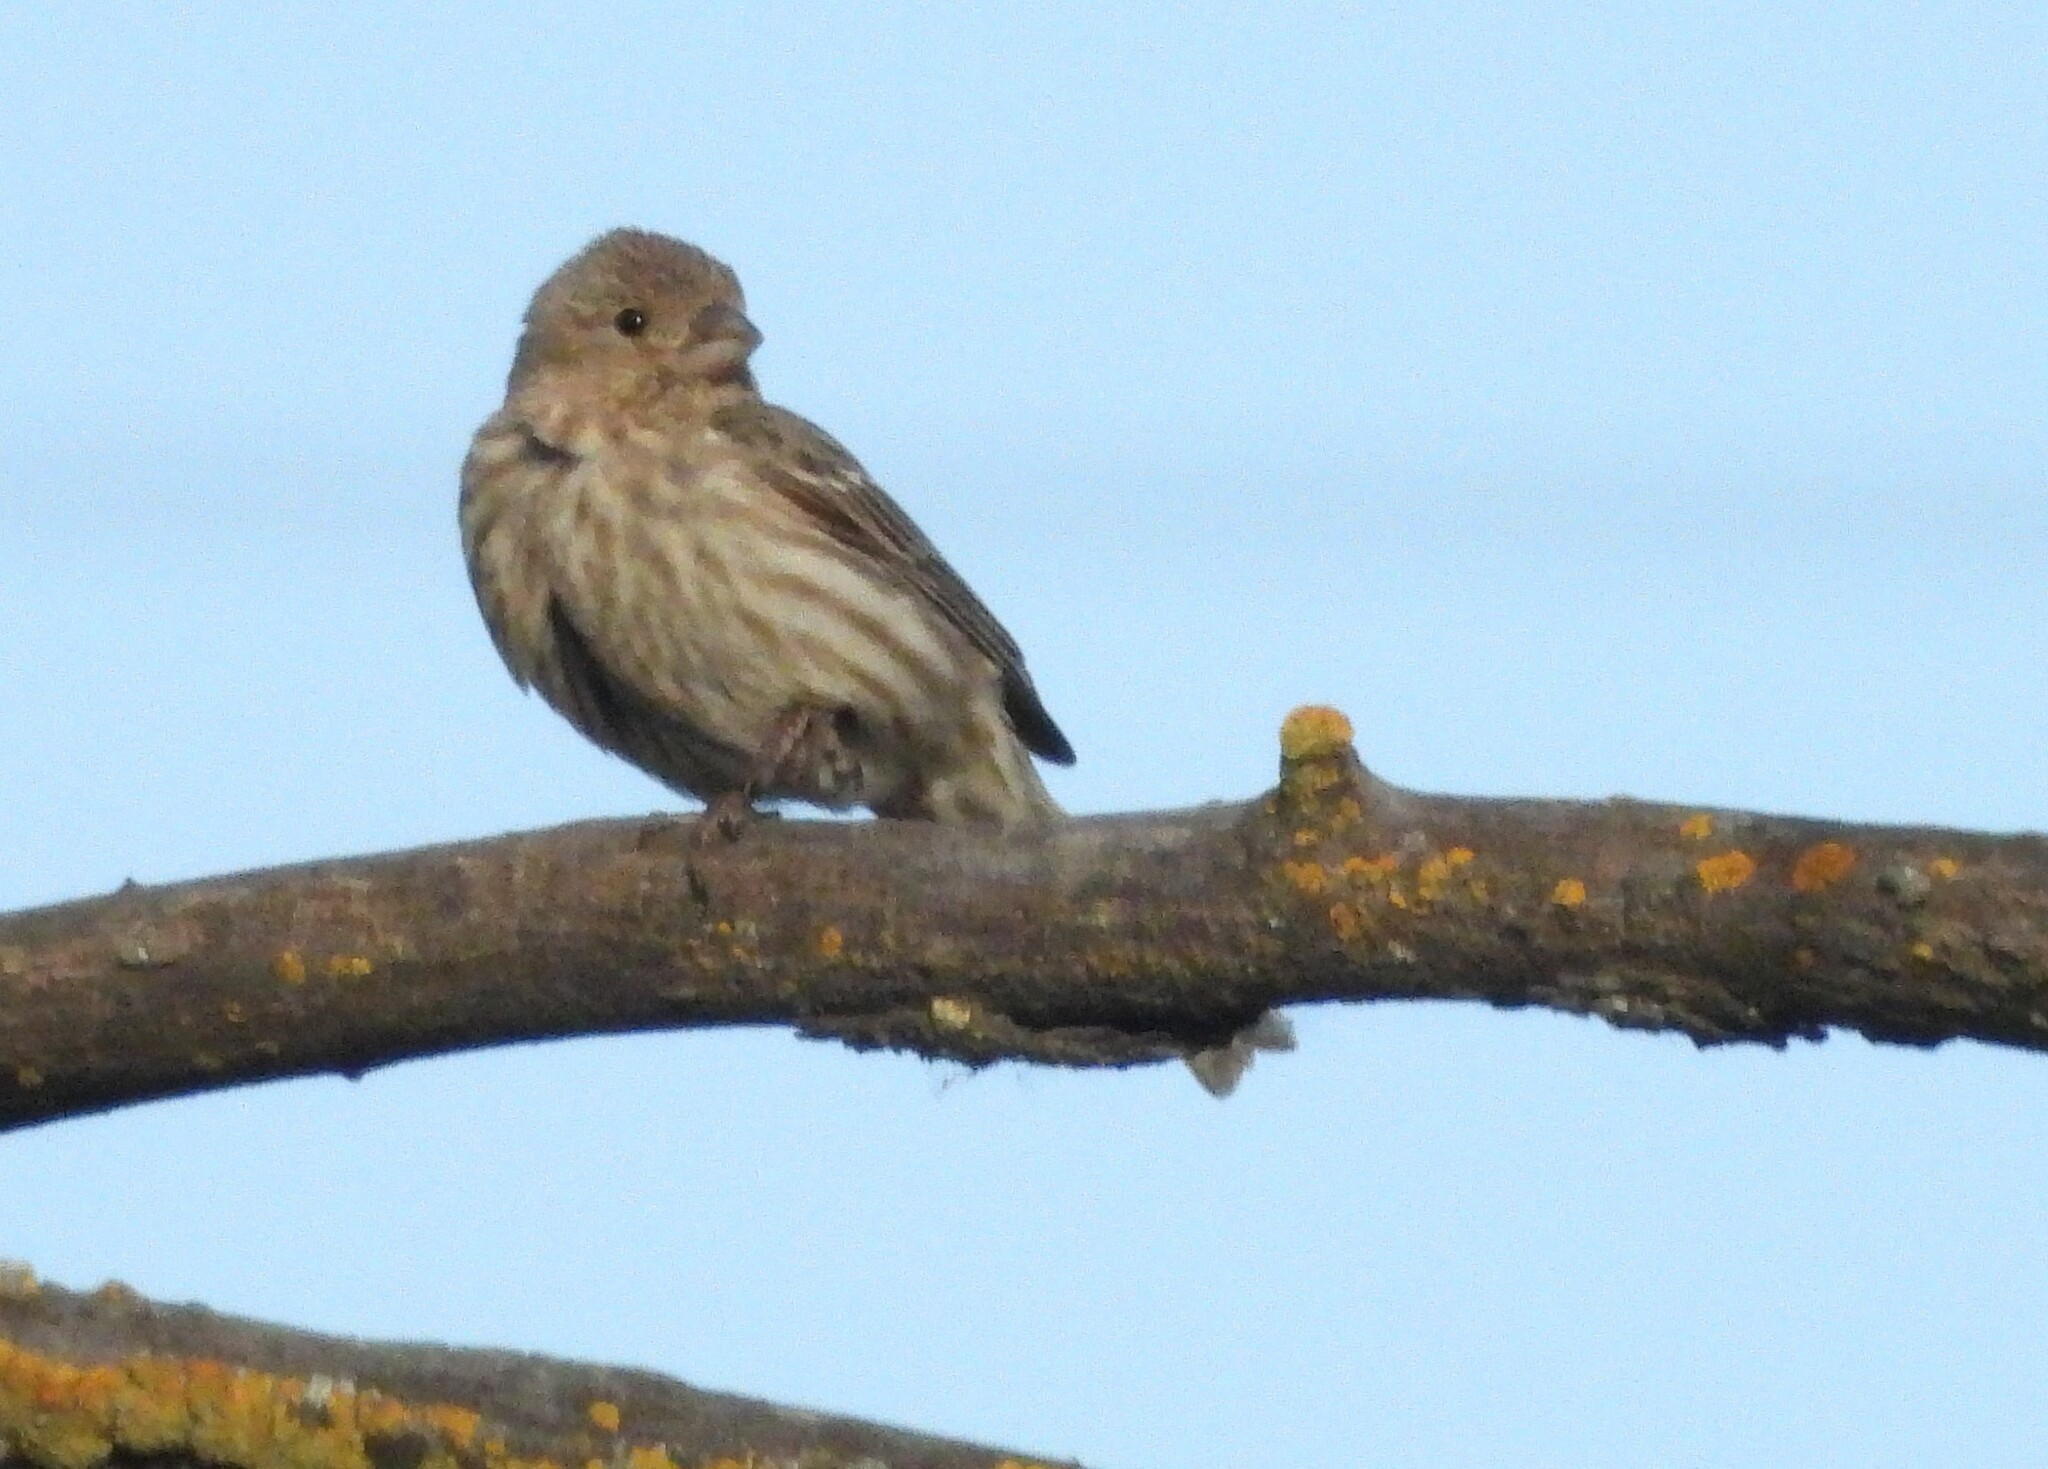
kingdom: Animalia
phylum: Chordata
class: Aves
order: Passeriformes
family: Fringillidae
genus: Haemorhous
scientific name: Haemorhous mexicanus
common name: House finch
